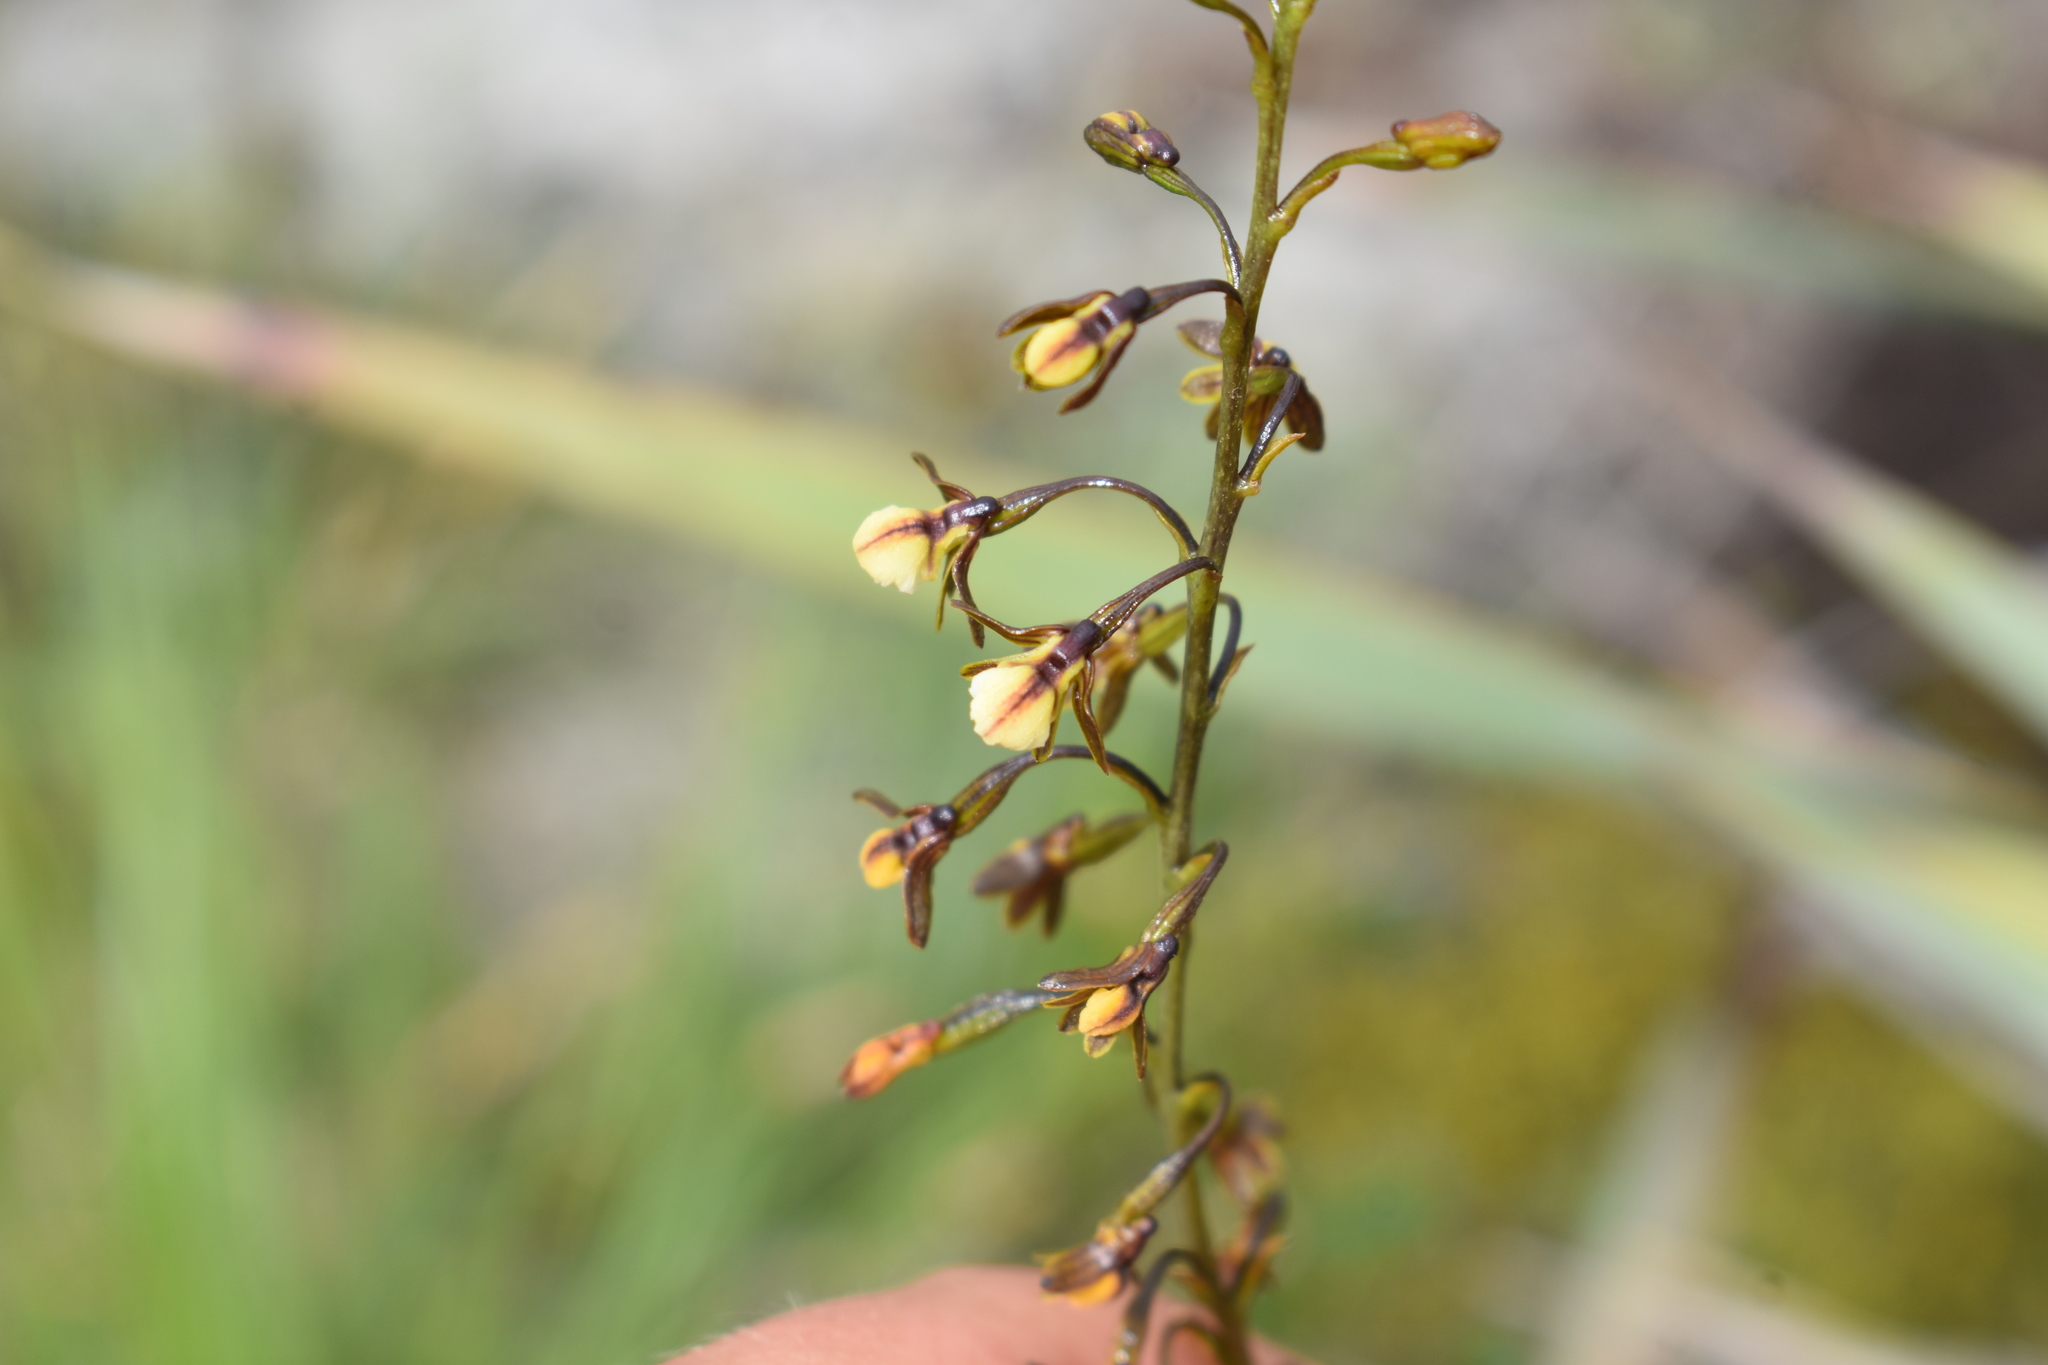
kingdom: Plantae
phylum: Tracheophyta
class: Liliopsida
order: Asparagales
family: Orchidaceae
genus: Eulophia
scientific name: Eulophia cochlearis
